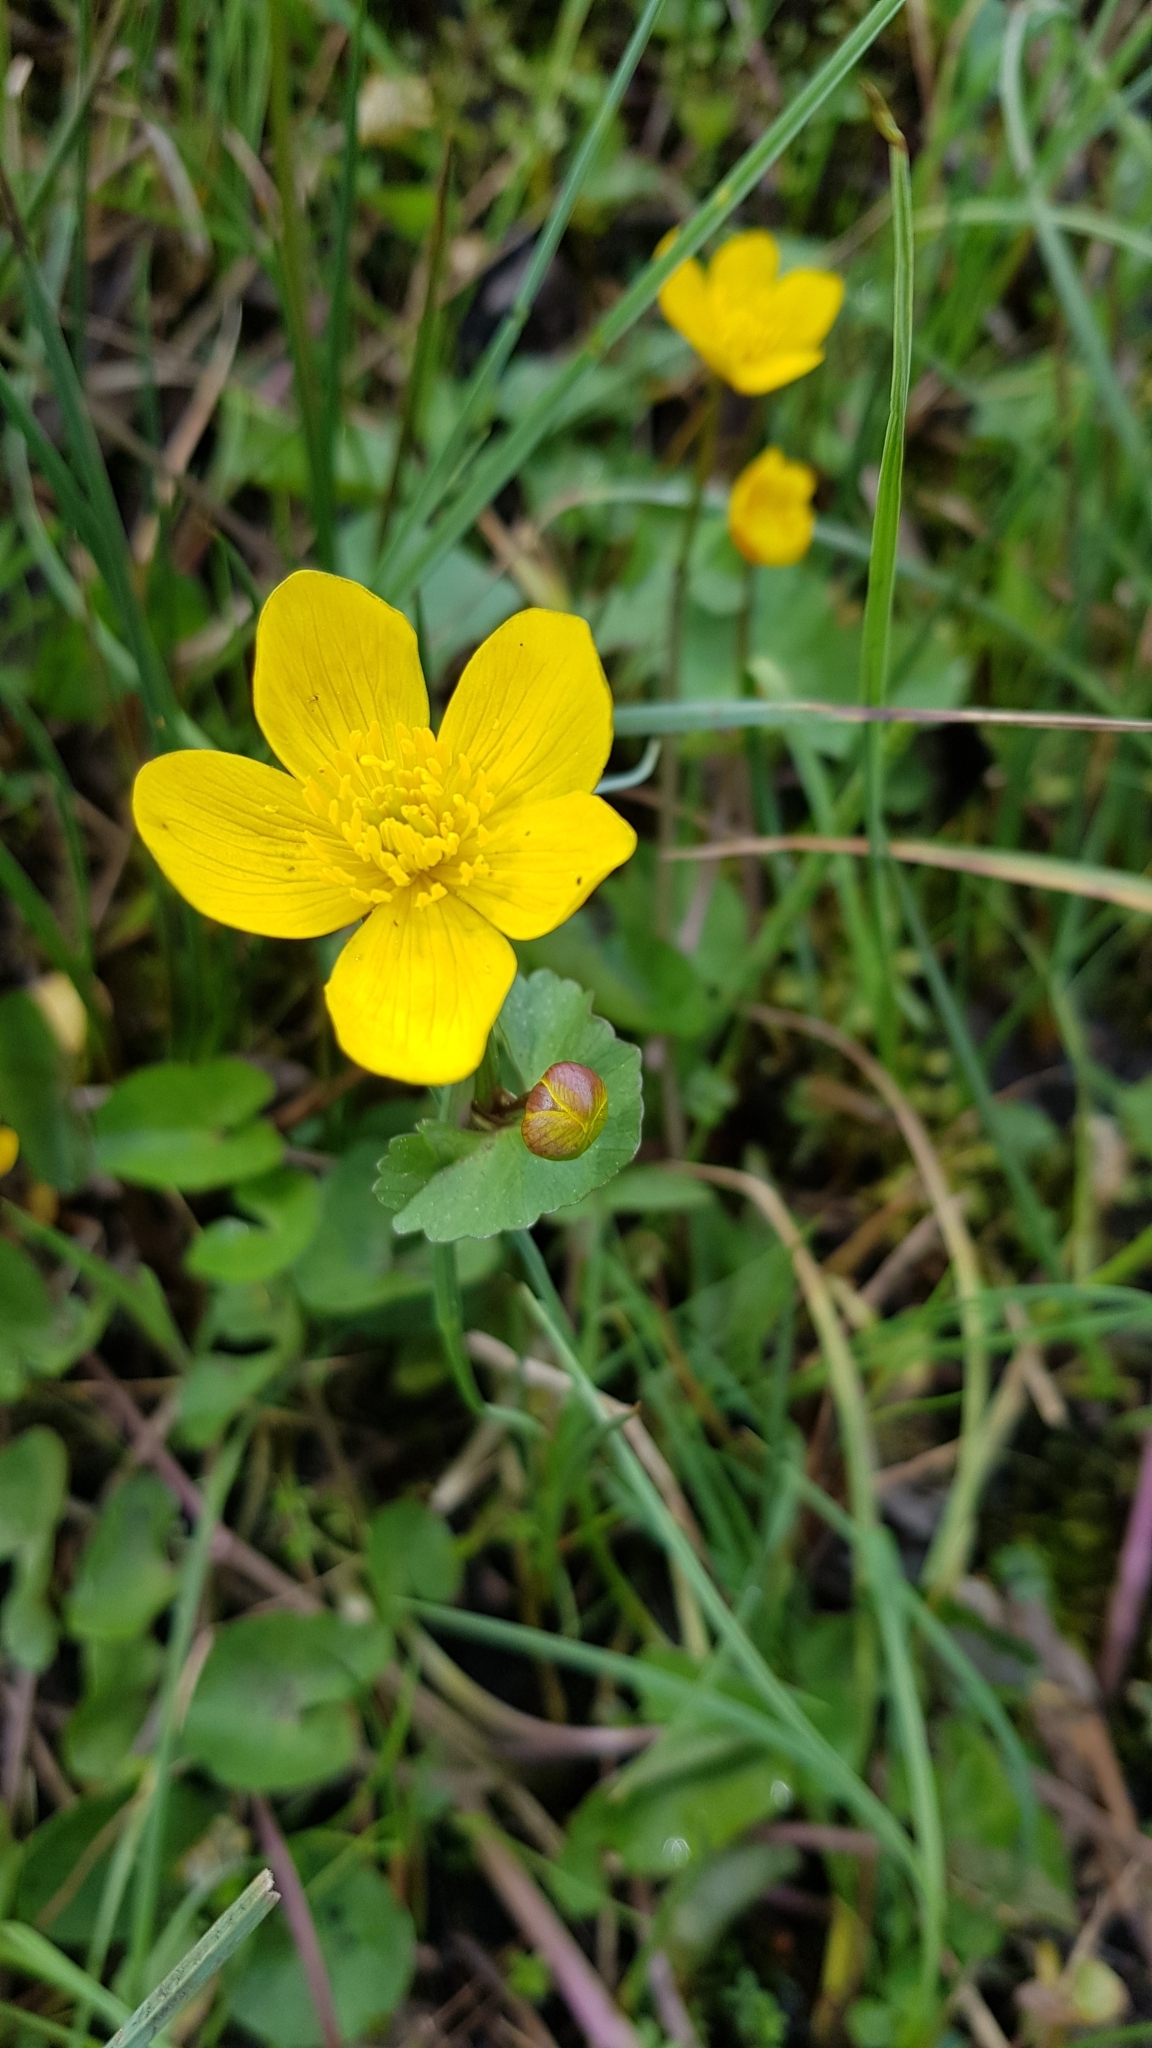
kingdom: Plantae
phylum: Tracheophyta
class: Magnoliopsida
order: Ranunculales
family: Ranunculaceae
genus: Caltha
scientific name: Caltha palustris
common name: Marsh marigold
